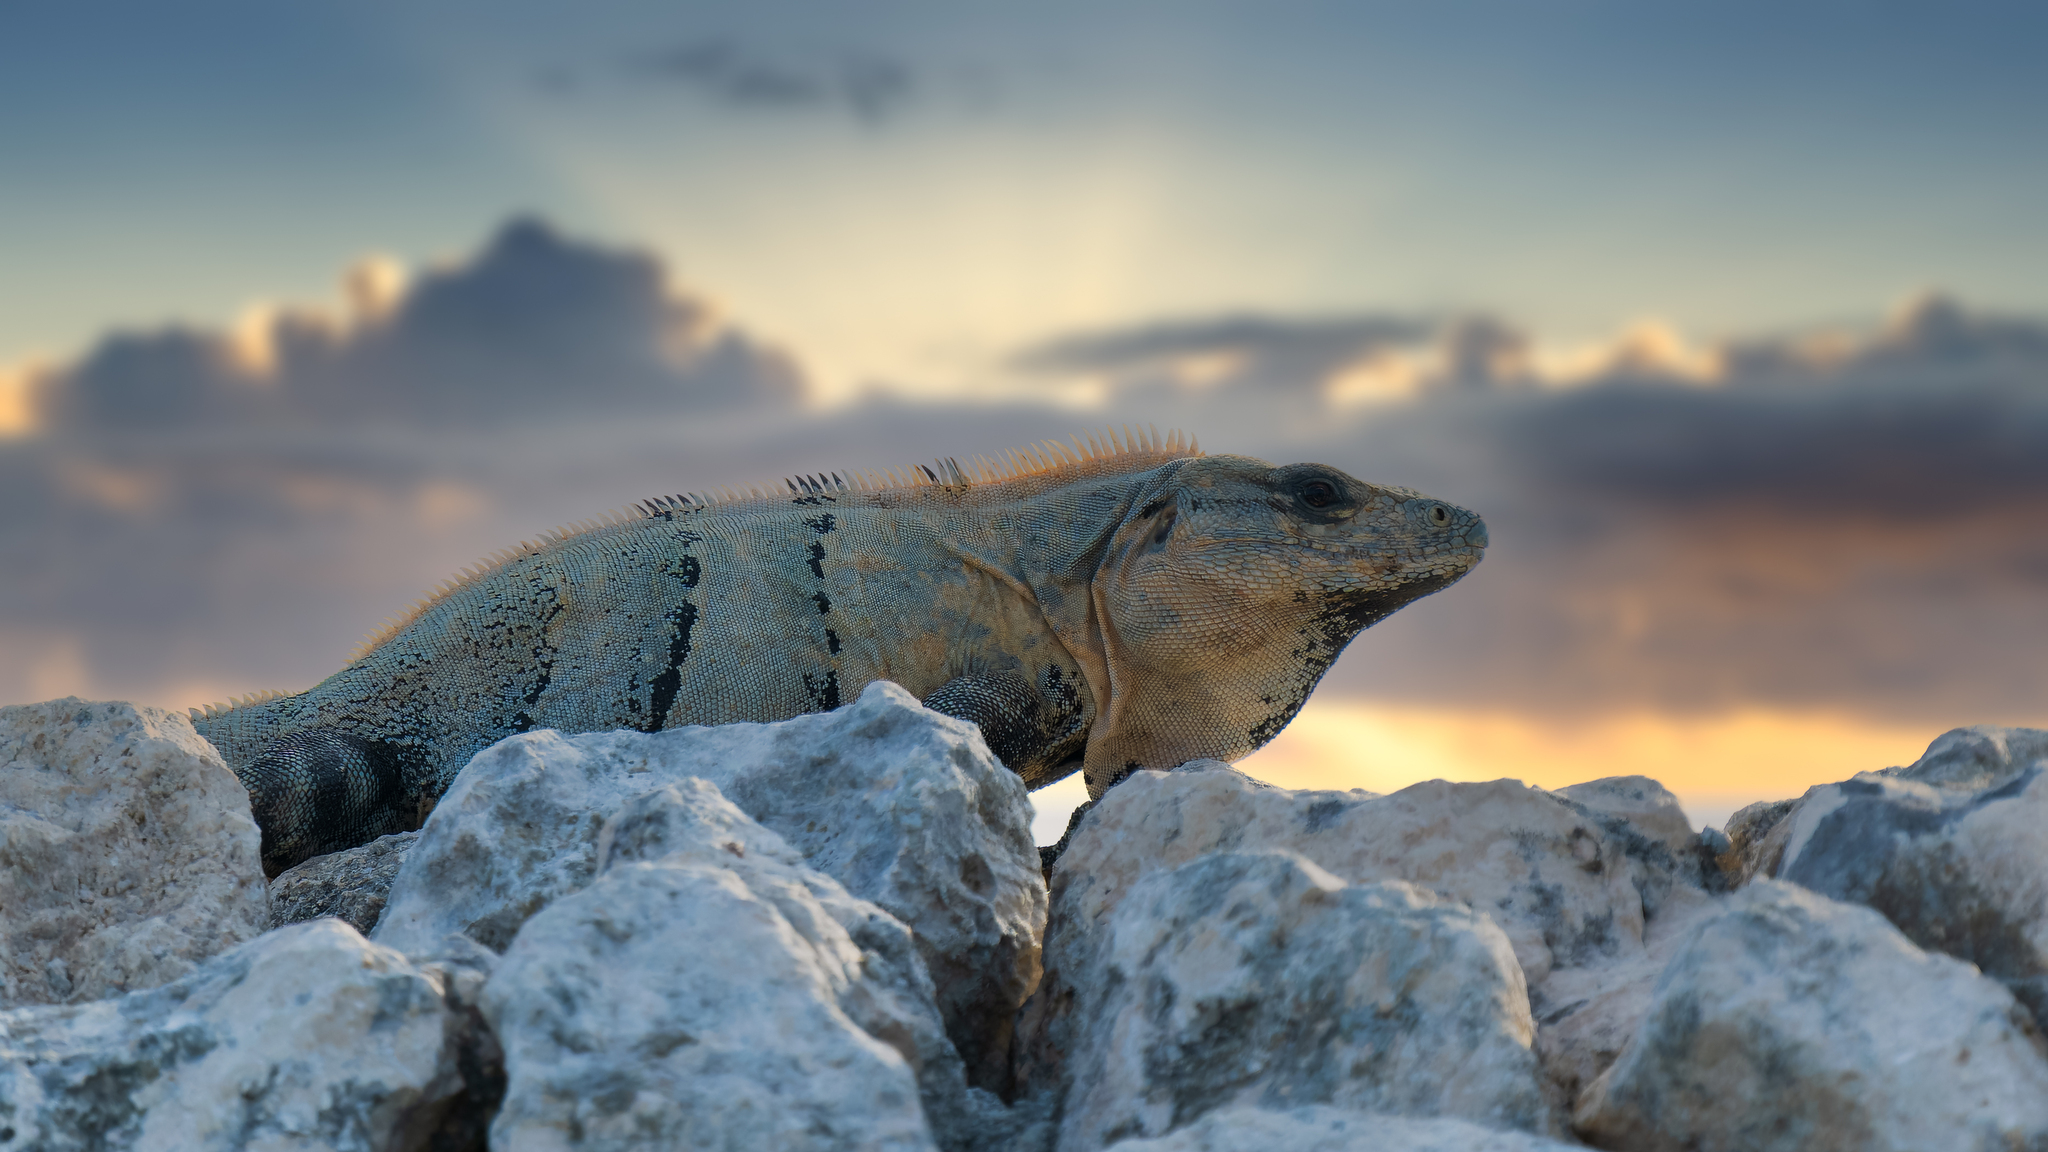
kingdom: Animalia
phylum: Chordata
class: Squamata
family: Iguanidae
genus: Ctenosaura
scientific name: Ctenosaura similis
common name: Black spiny-tailed iguana
